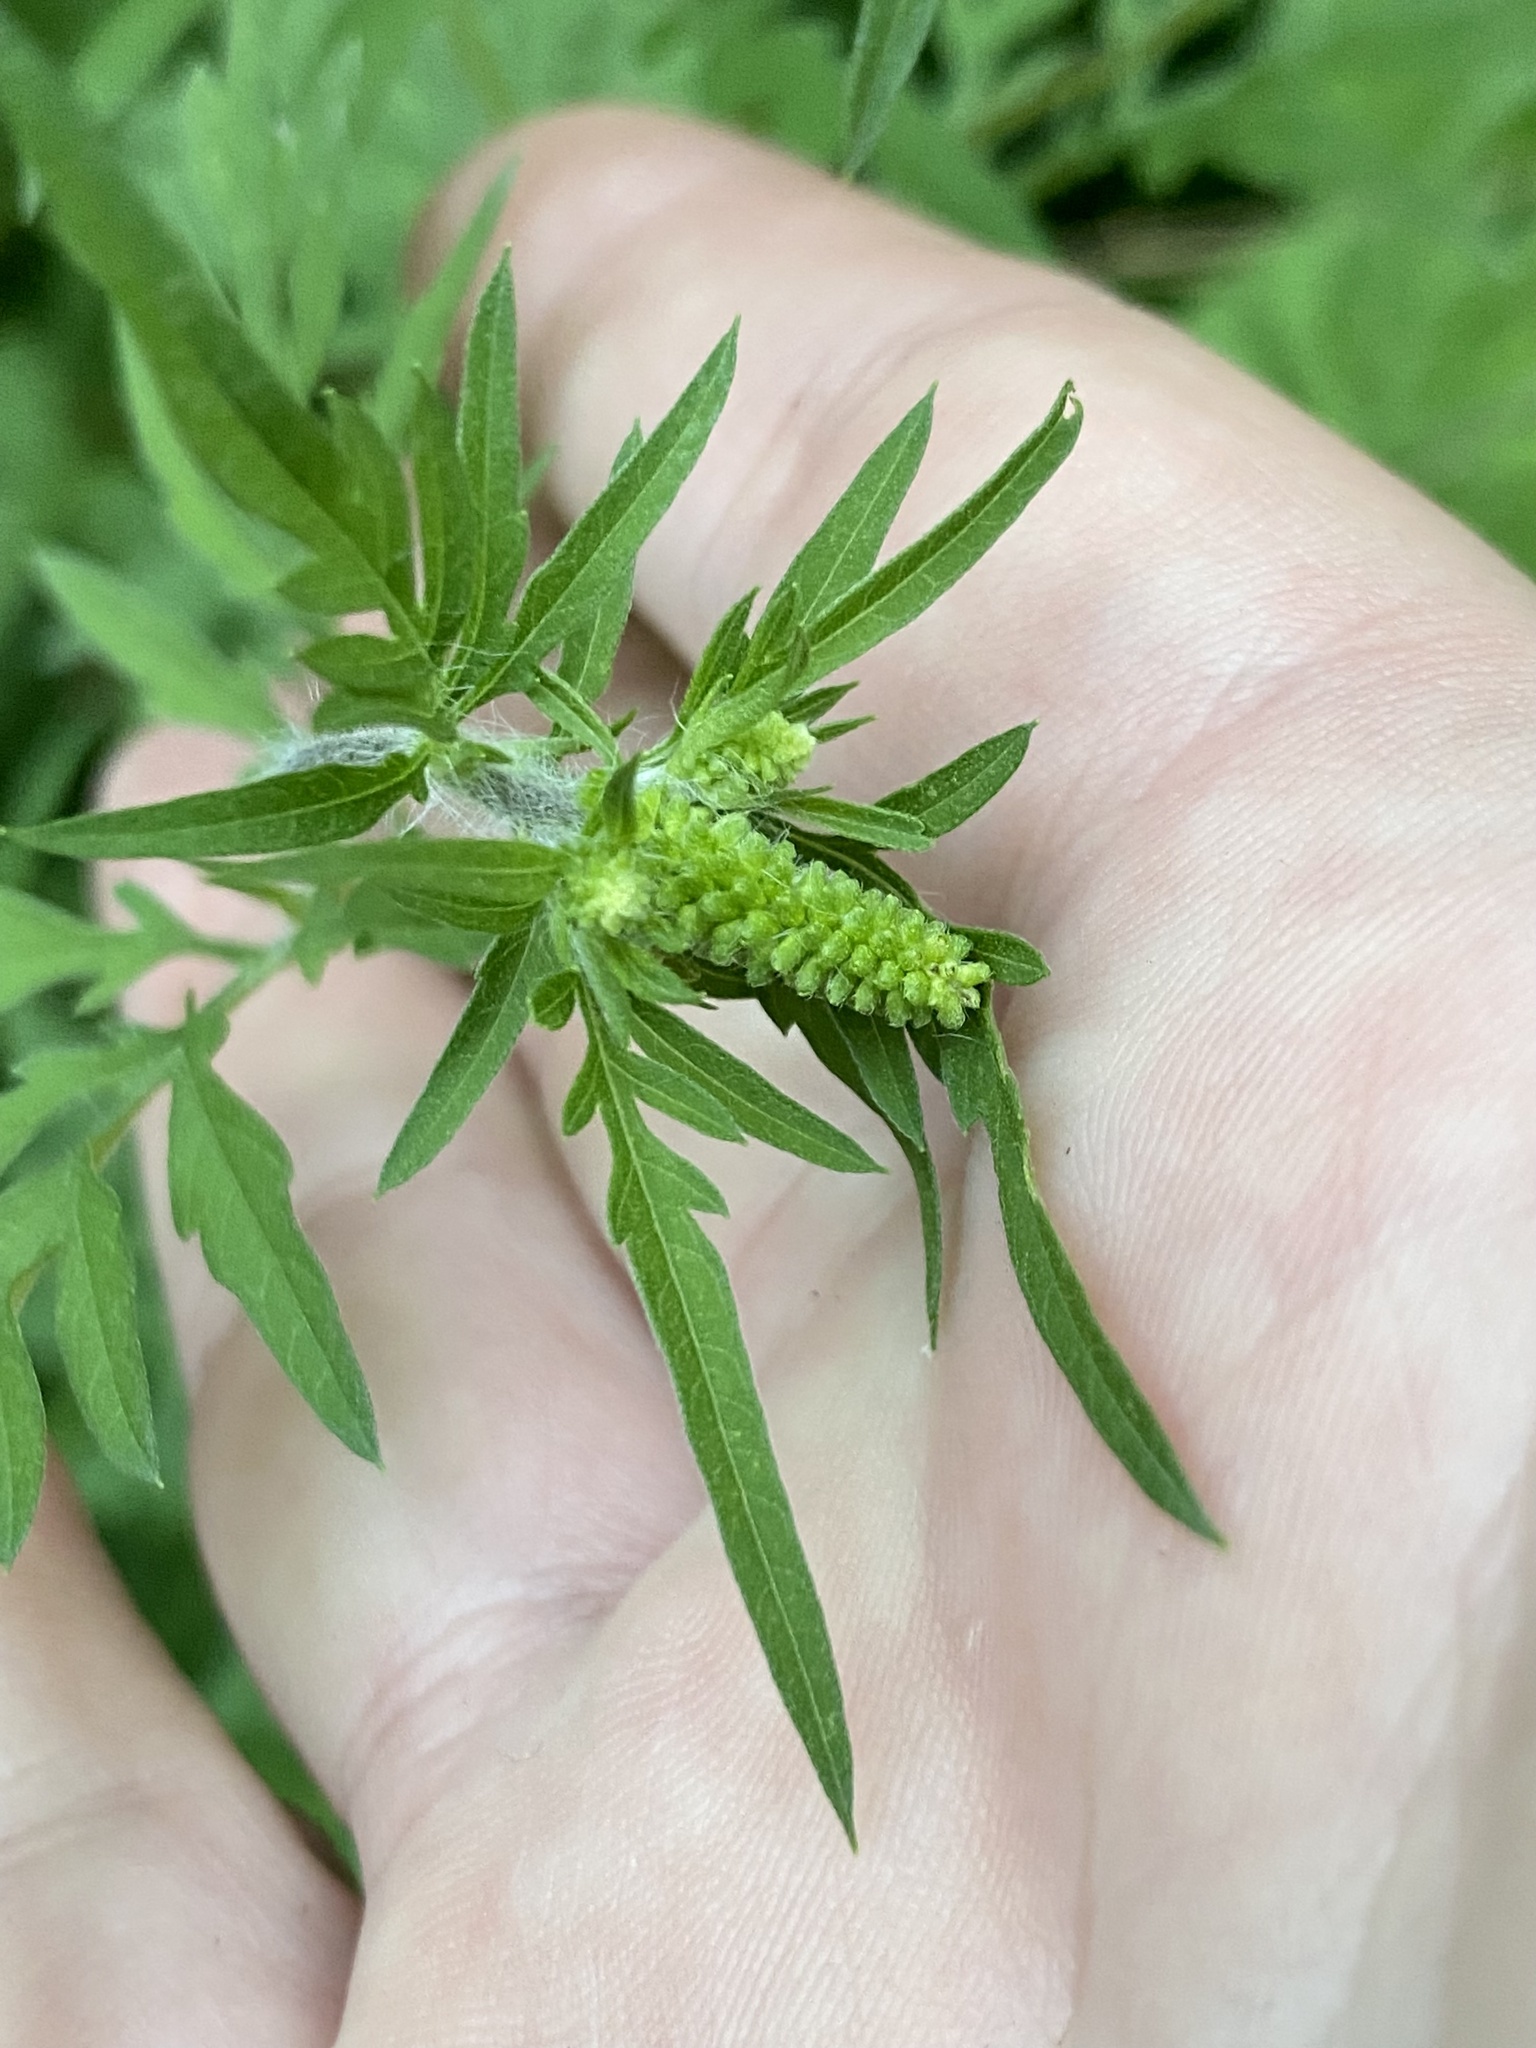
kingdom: Plantae
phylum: Tracheophyta
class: Magnoliopsida
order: Asterales
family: Asteraceae
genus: Ambrosia
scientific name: Ambrosia artemisiifolia
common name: Annual ragweed
